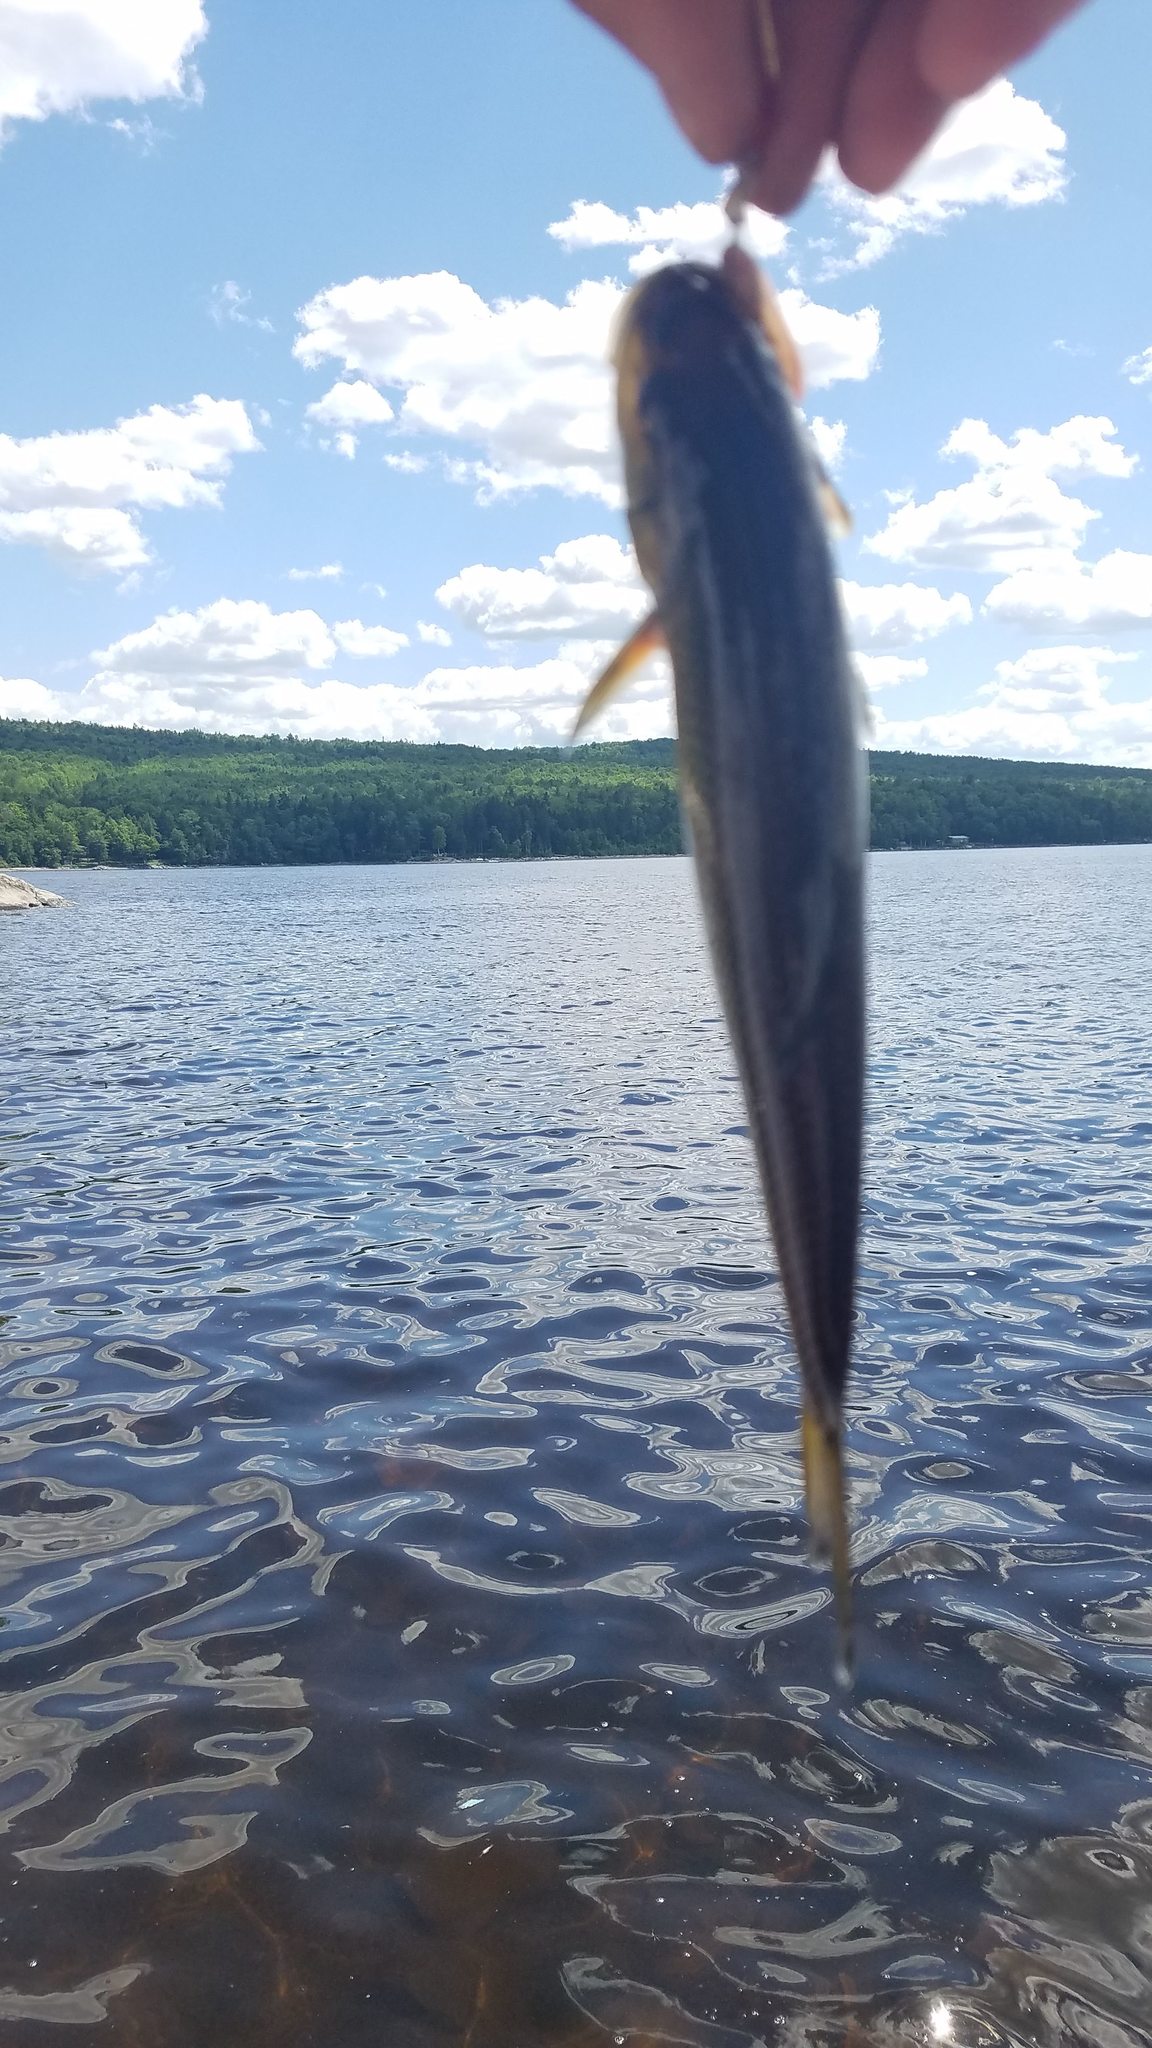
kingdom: Animalia
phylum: Chordata
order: Cypriniformes
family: Cyprinidae
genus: Semotilus
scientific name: Semotilus corporalis
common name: Fallfish
